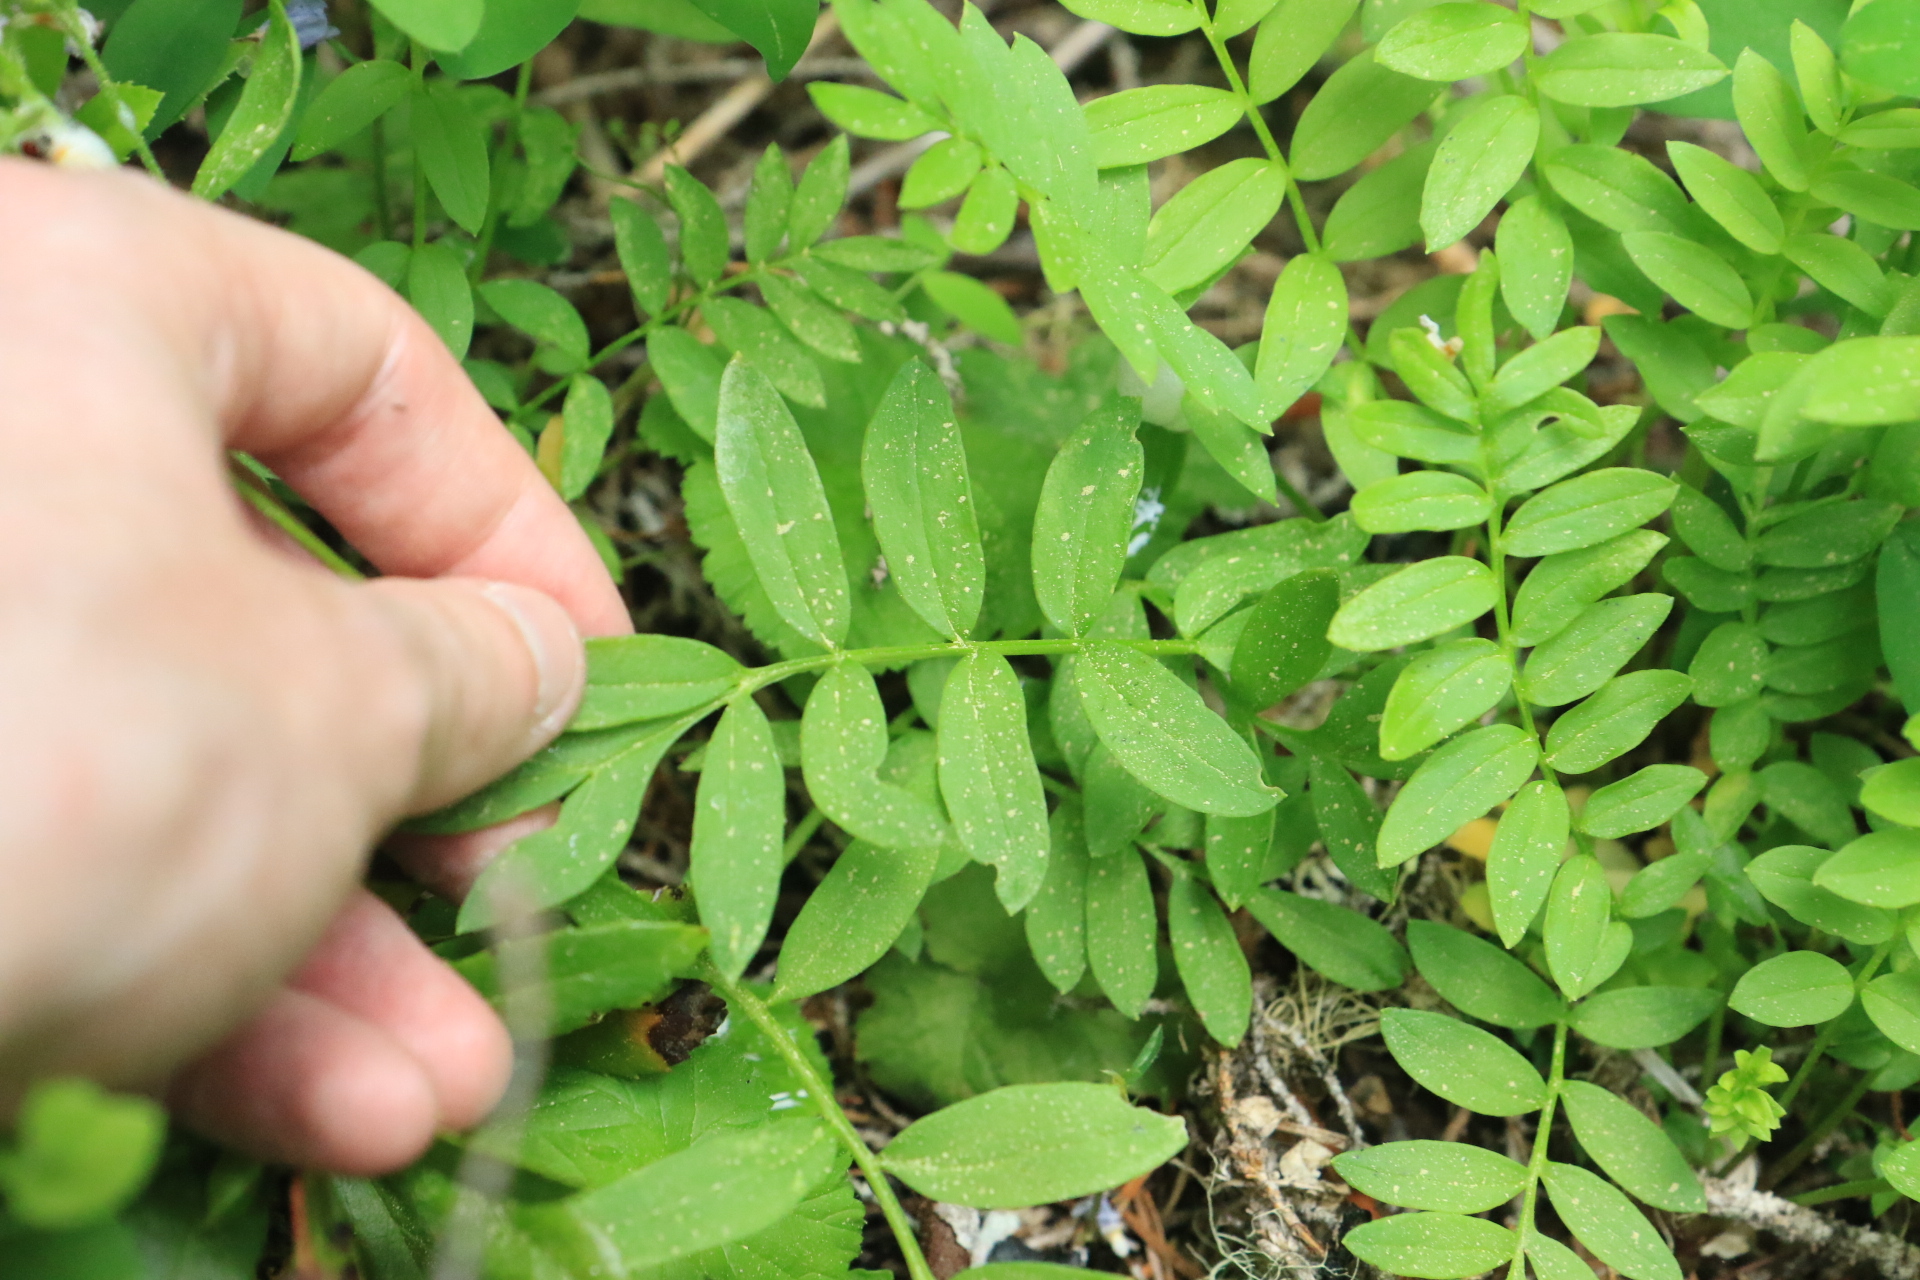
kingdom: Plantae
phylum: Tracheophyta
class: Magnoliopsida
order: Ericales
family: Polemoniaceae
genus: Polemonium
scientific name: Polemonium californicum
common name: California jacob's ladder
